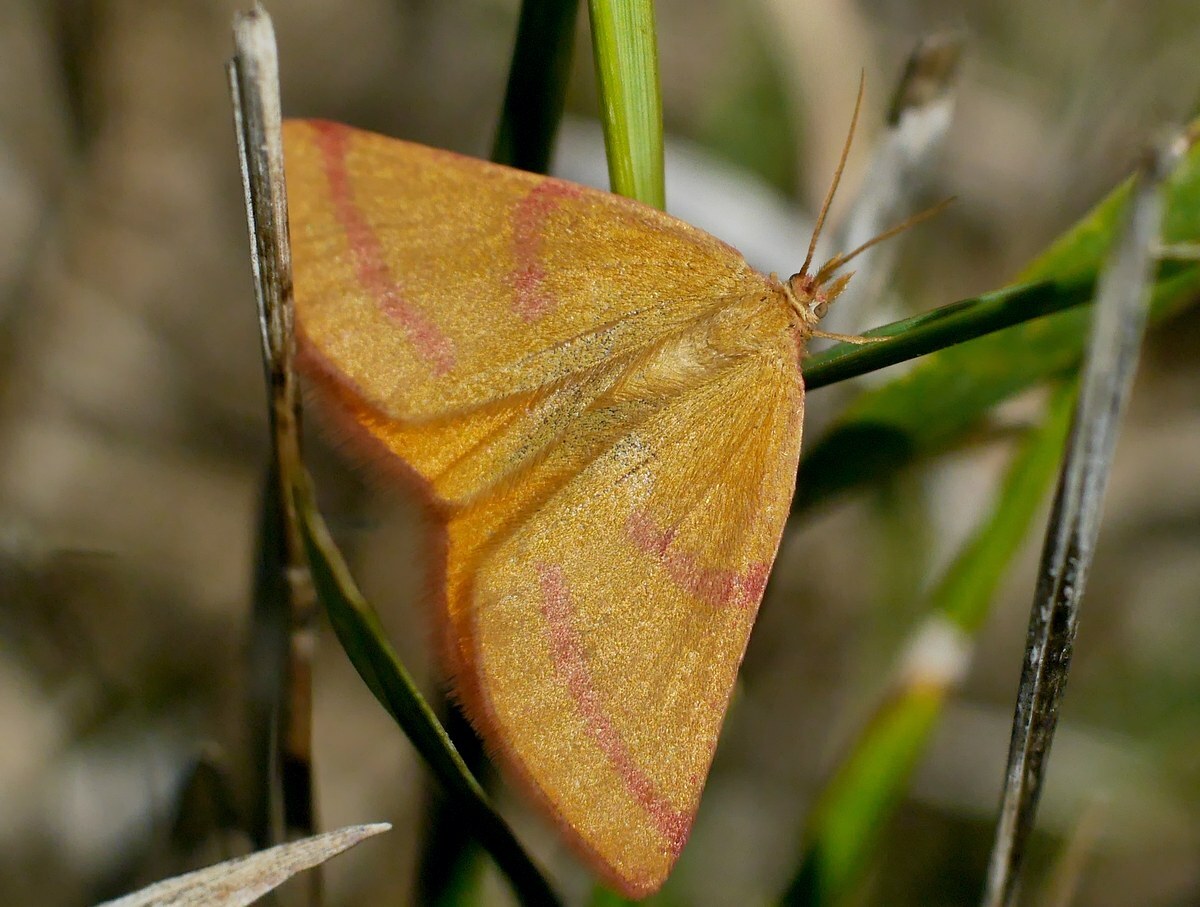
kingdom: Animalia
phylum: Arthropoda
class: Insecta
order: Lepidoptera
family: Geometridae
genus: Lythria
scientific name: Lythria purpuraria
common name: Purple-barred yellow
